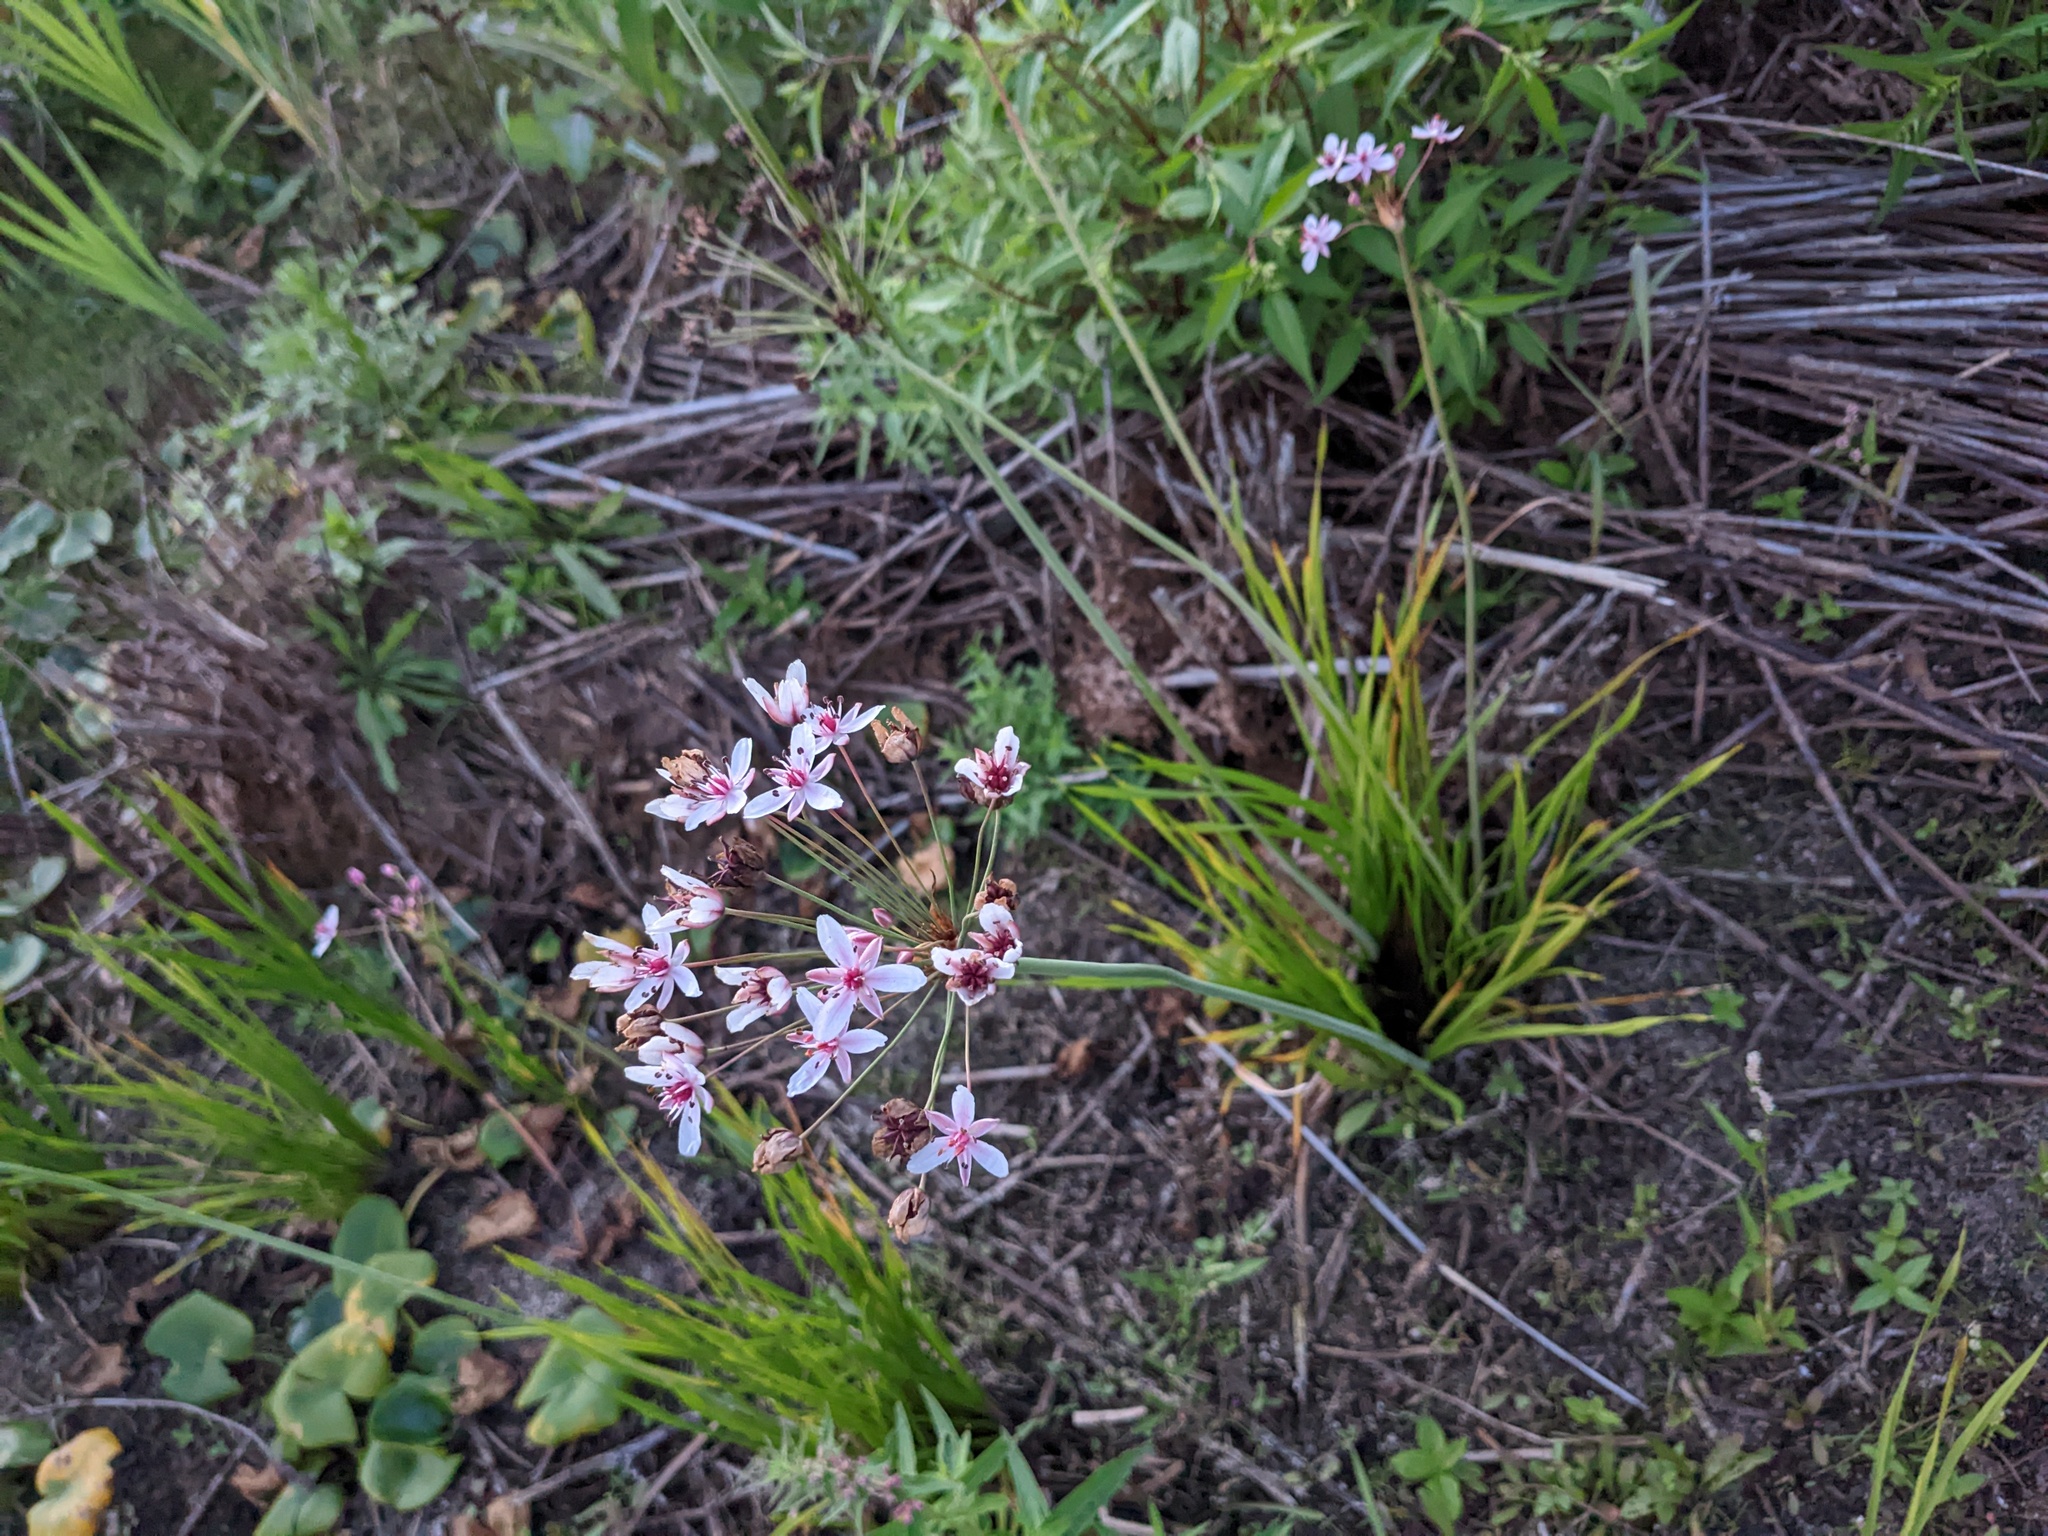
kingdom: Plantae
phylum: Tracheophyta
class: Liliopsida
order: Alismatales
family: Butomaceae
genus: Butomus
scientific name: Butomus umbellatus
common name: Flowering-rush
